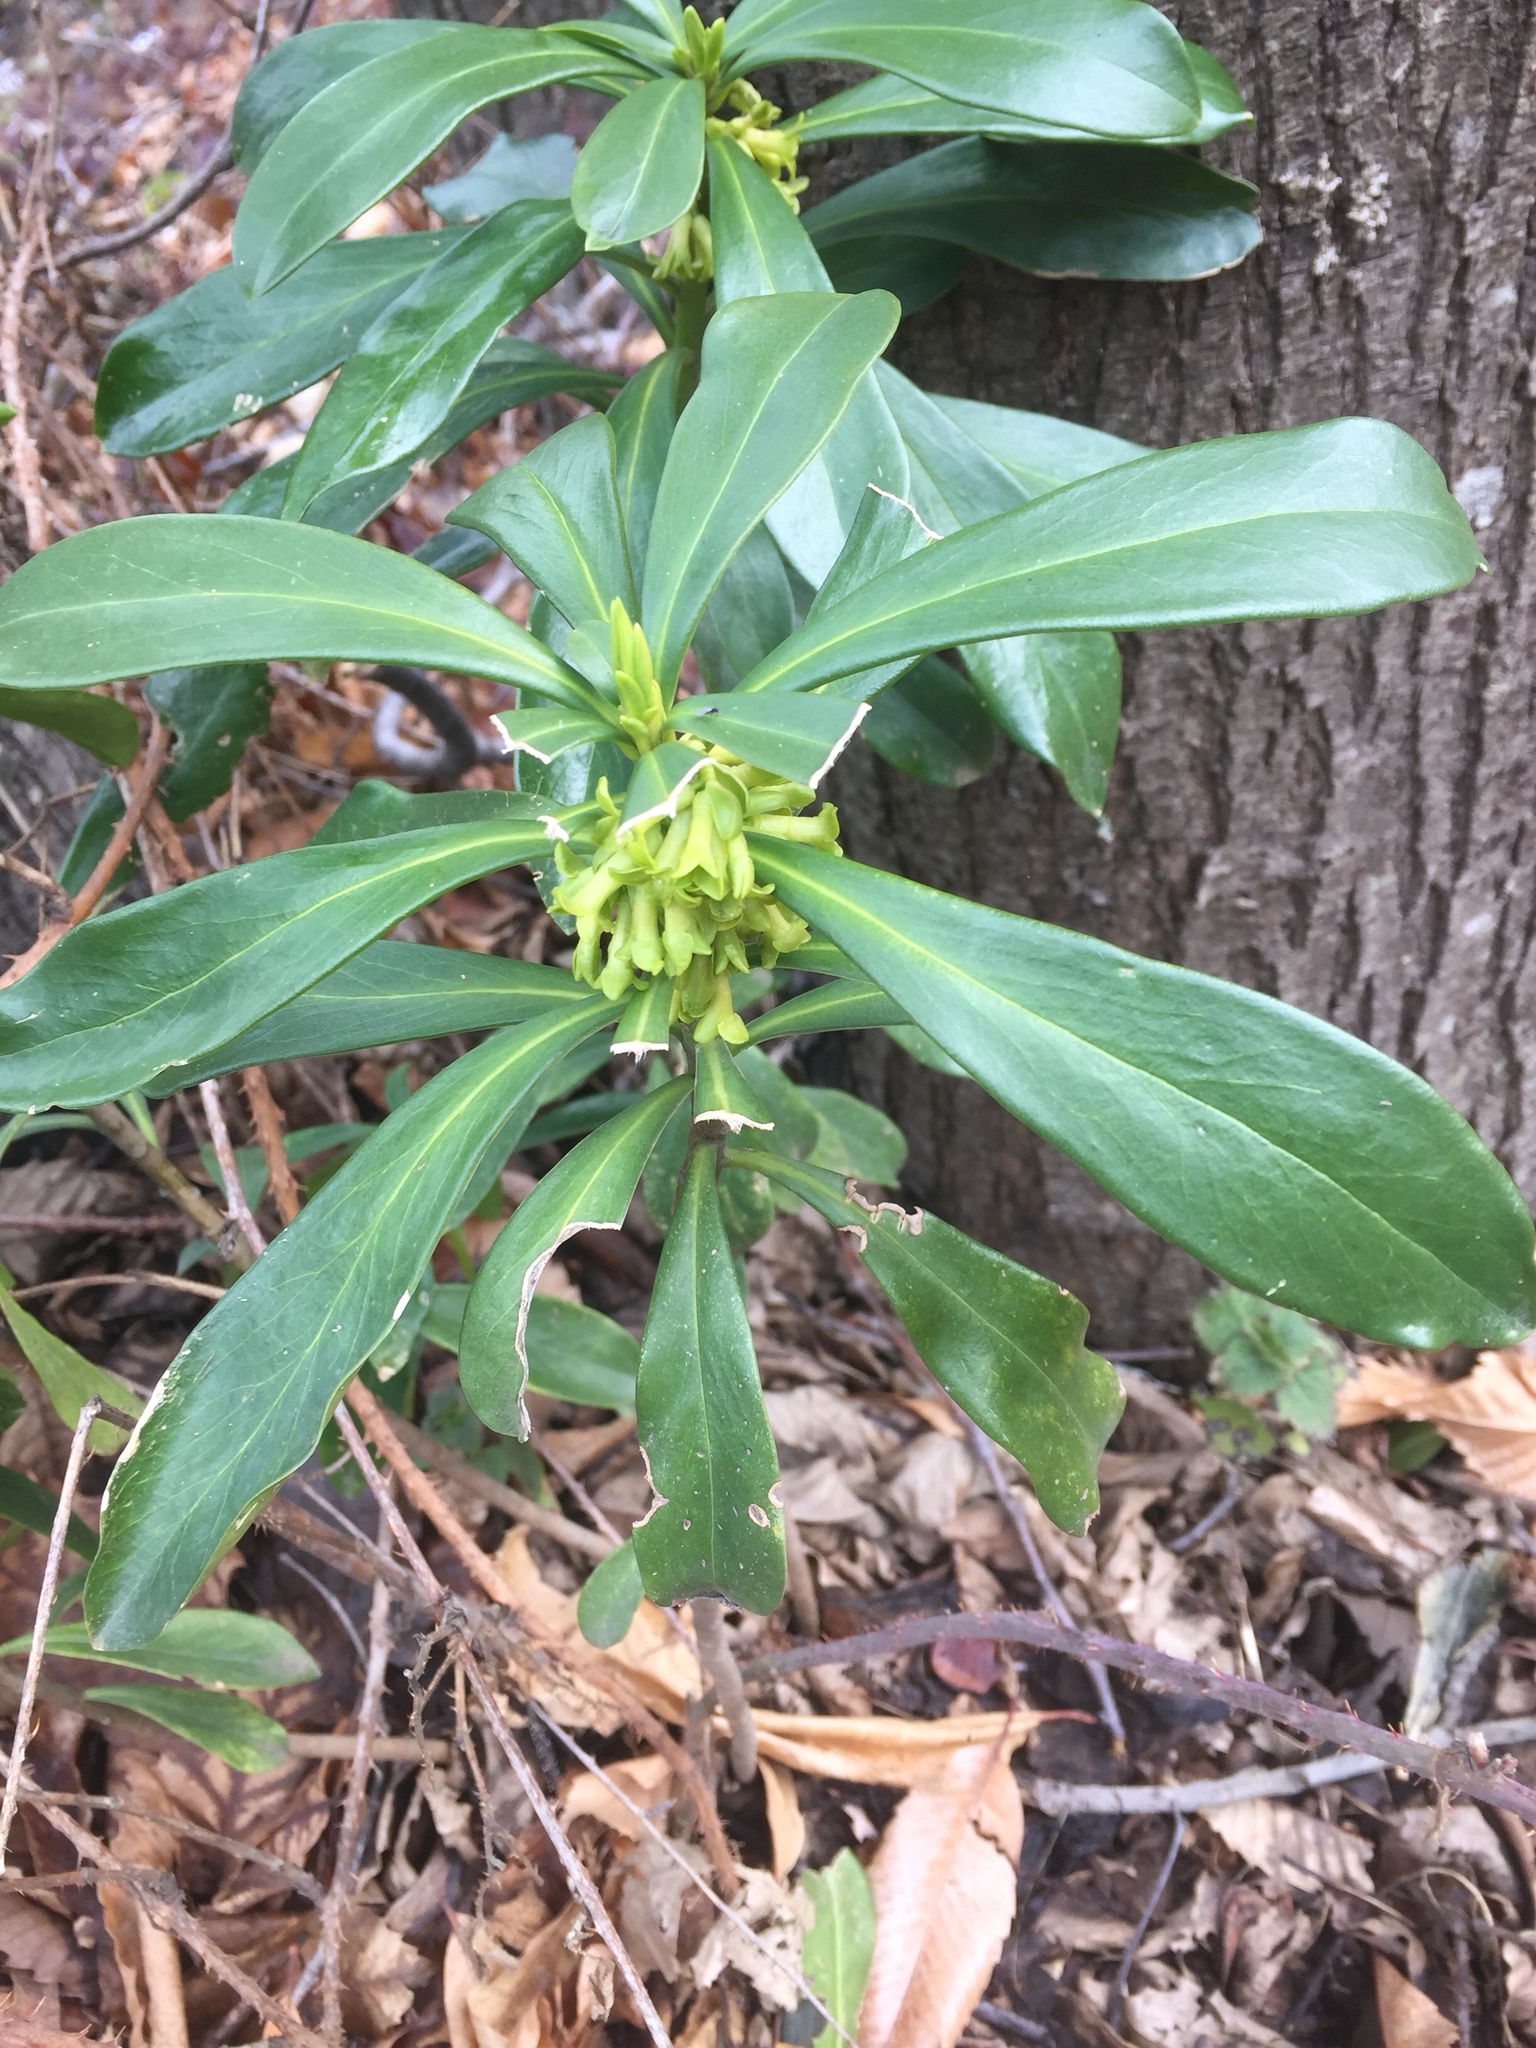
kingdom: Plantae
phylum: Tracheophyta
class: Magnoliopsida
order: Malvales
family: Thymelaeaceae
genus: Daphne
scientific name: Daphne laureola
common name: Spurge-laurel
